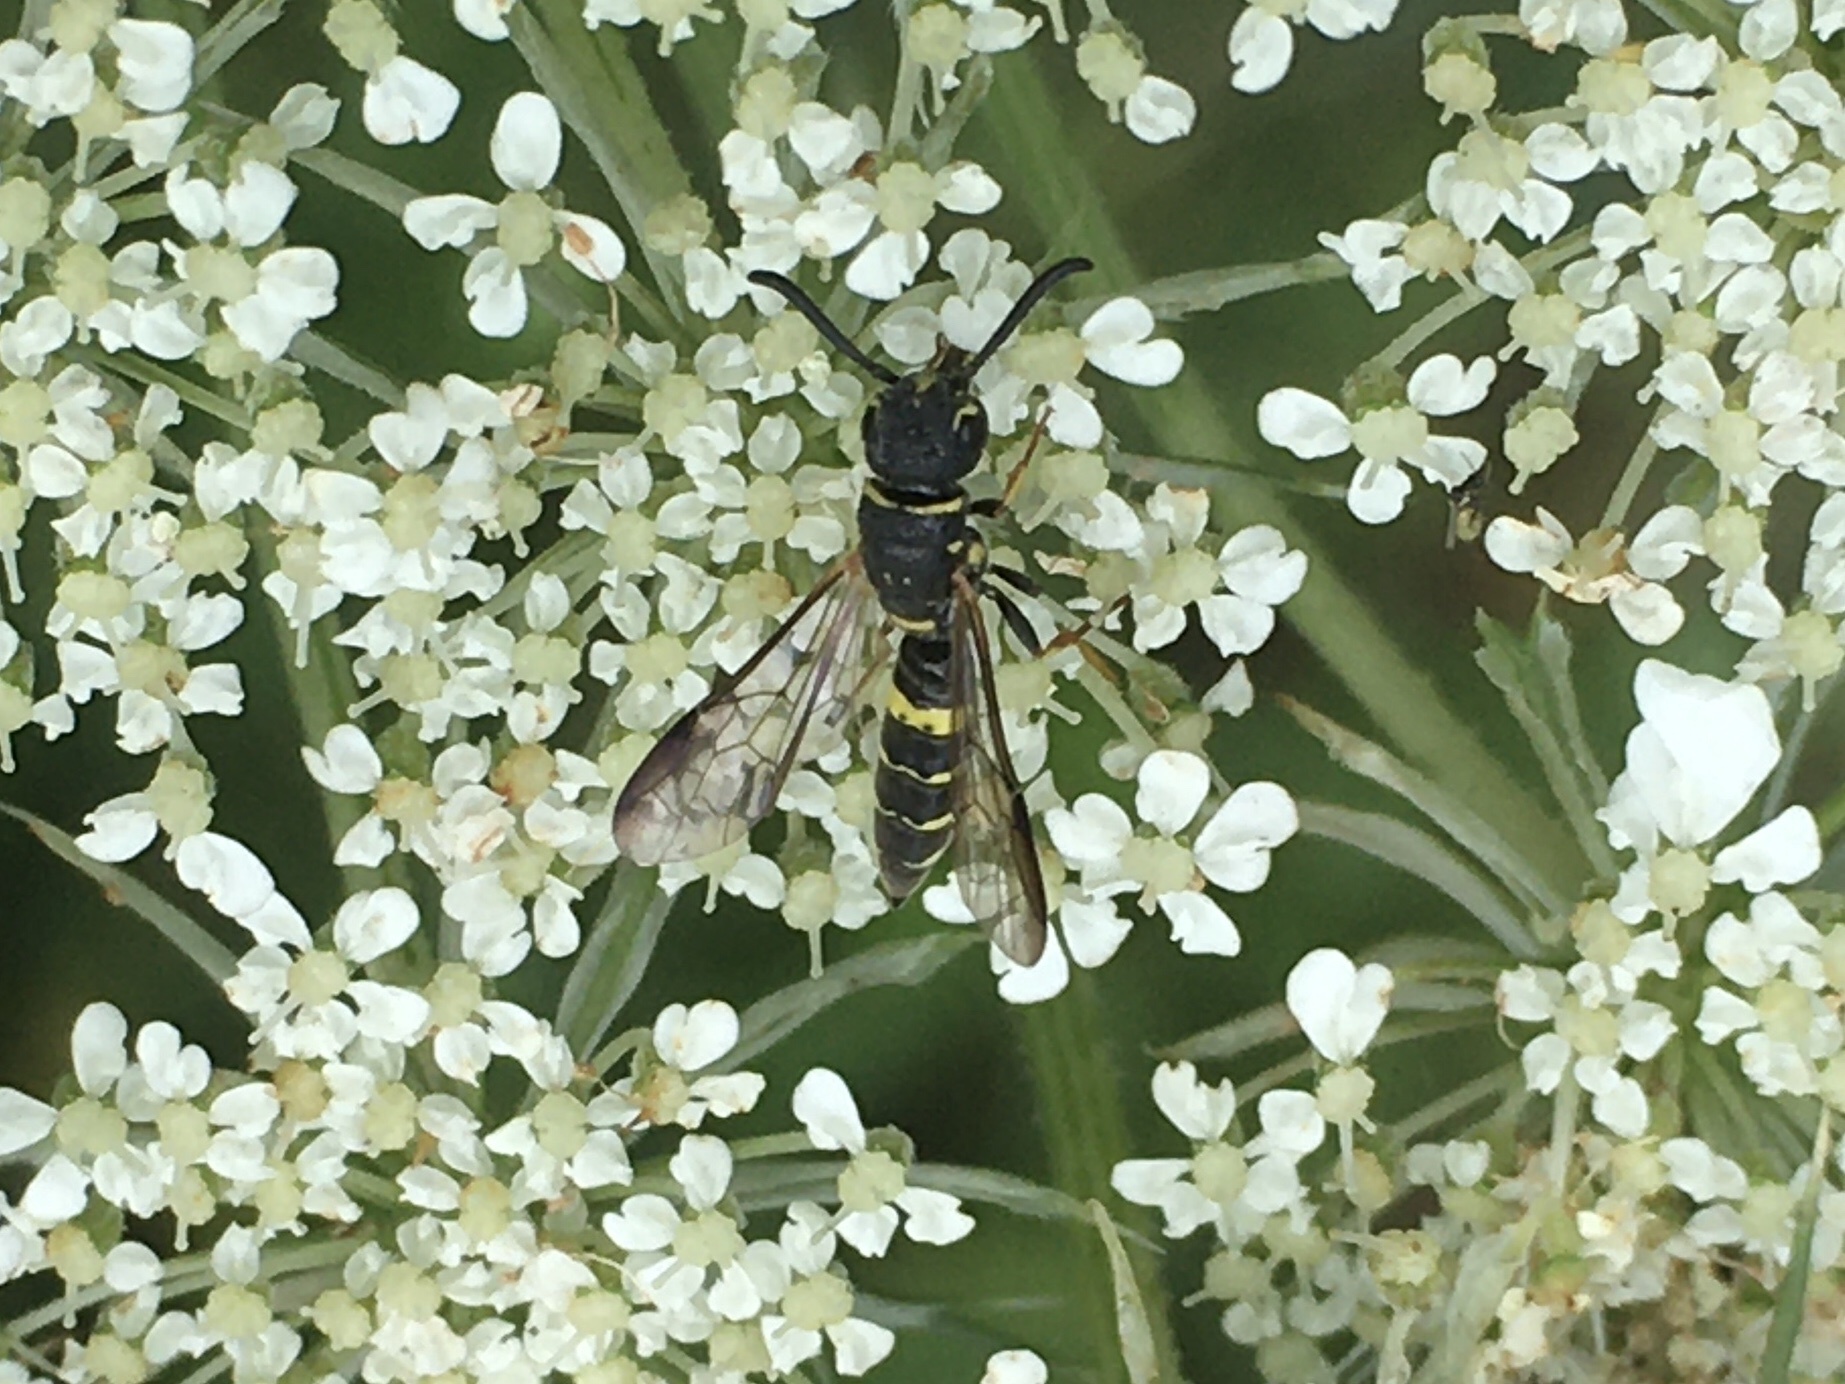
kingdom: Animalia
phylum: Arthropoda
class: Insecta
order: Hymenoptera
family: Sapygidae
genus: Sapyga
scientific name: Sapyga louisi
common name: Louis's club-horned cuckoo wasp
